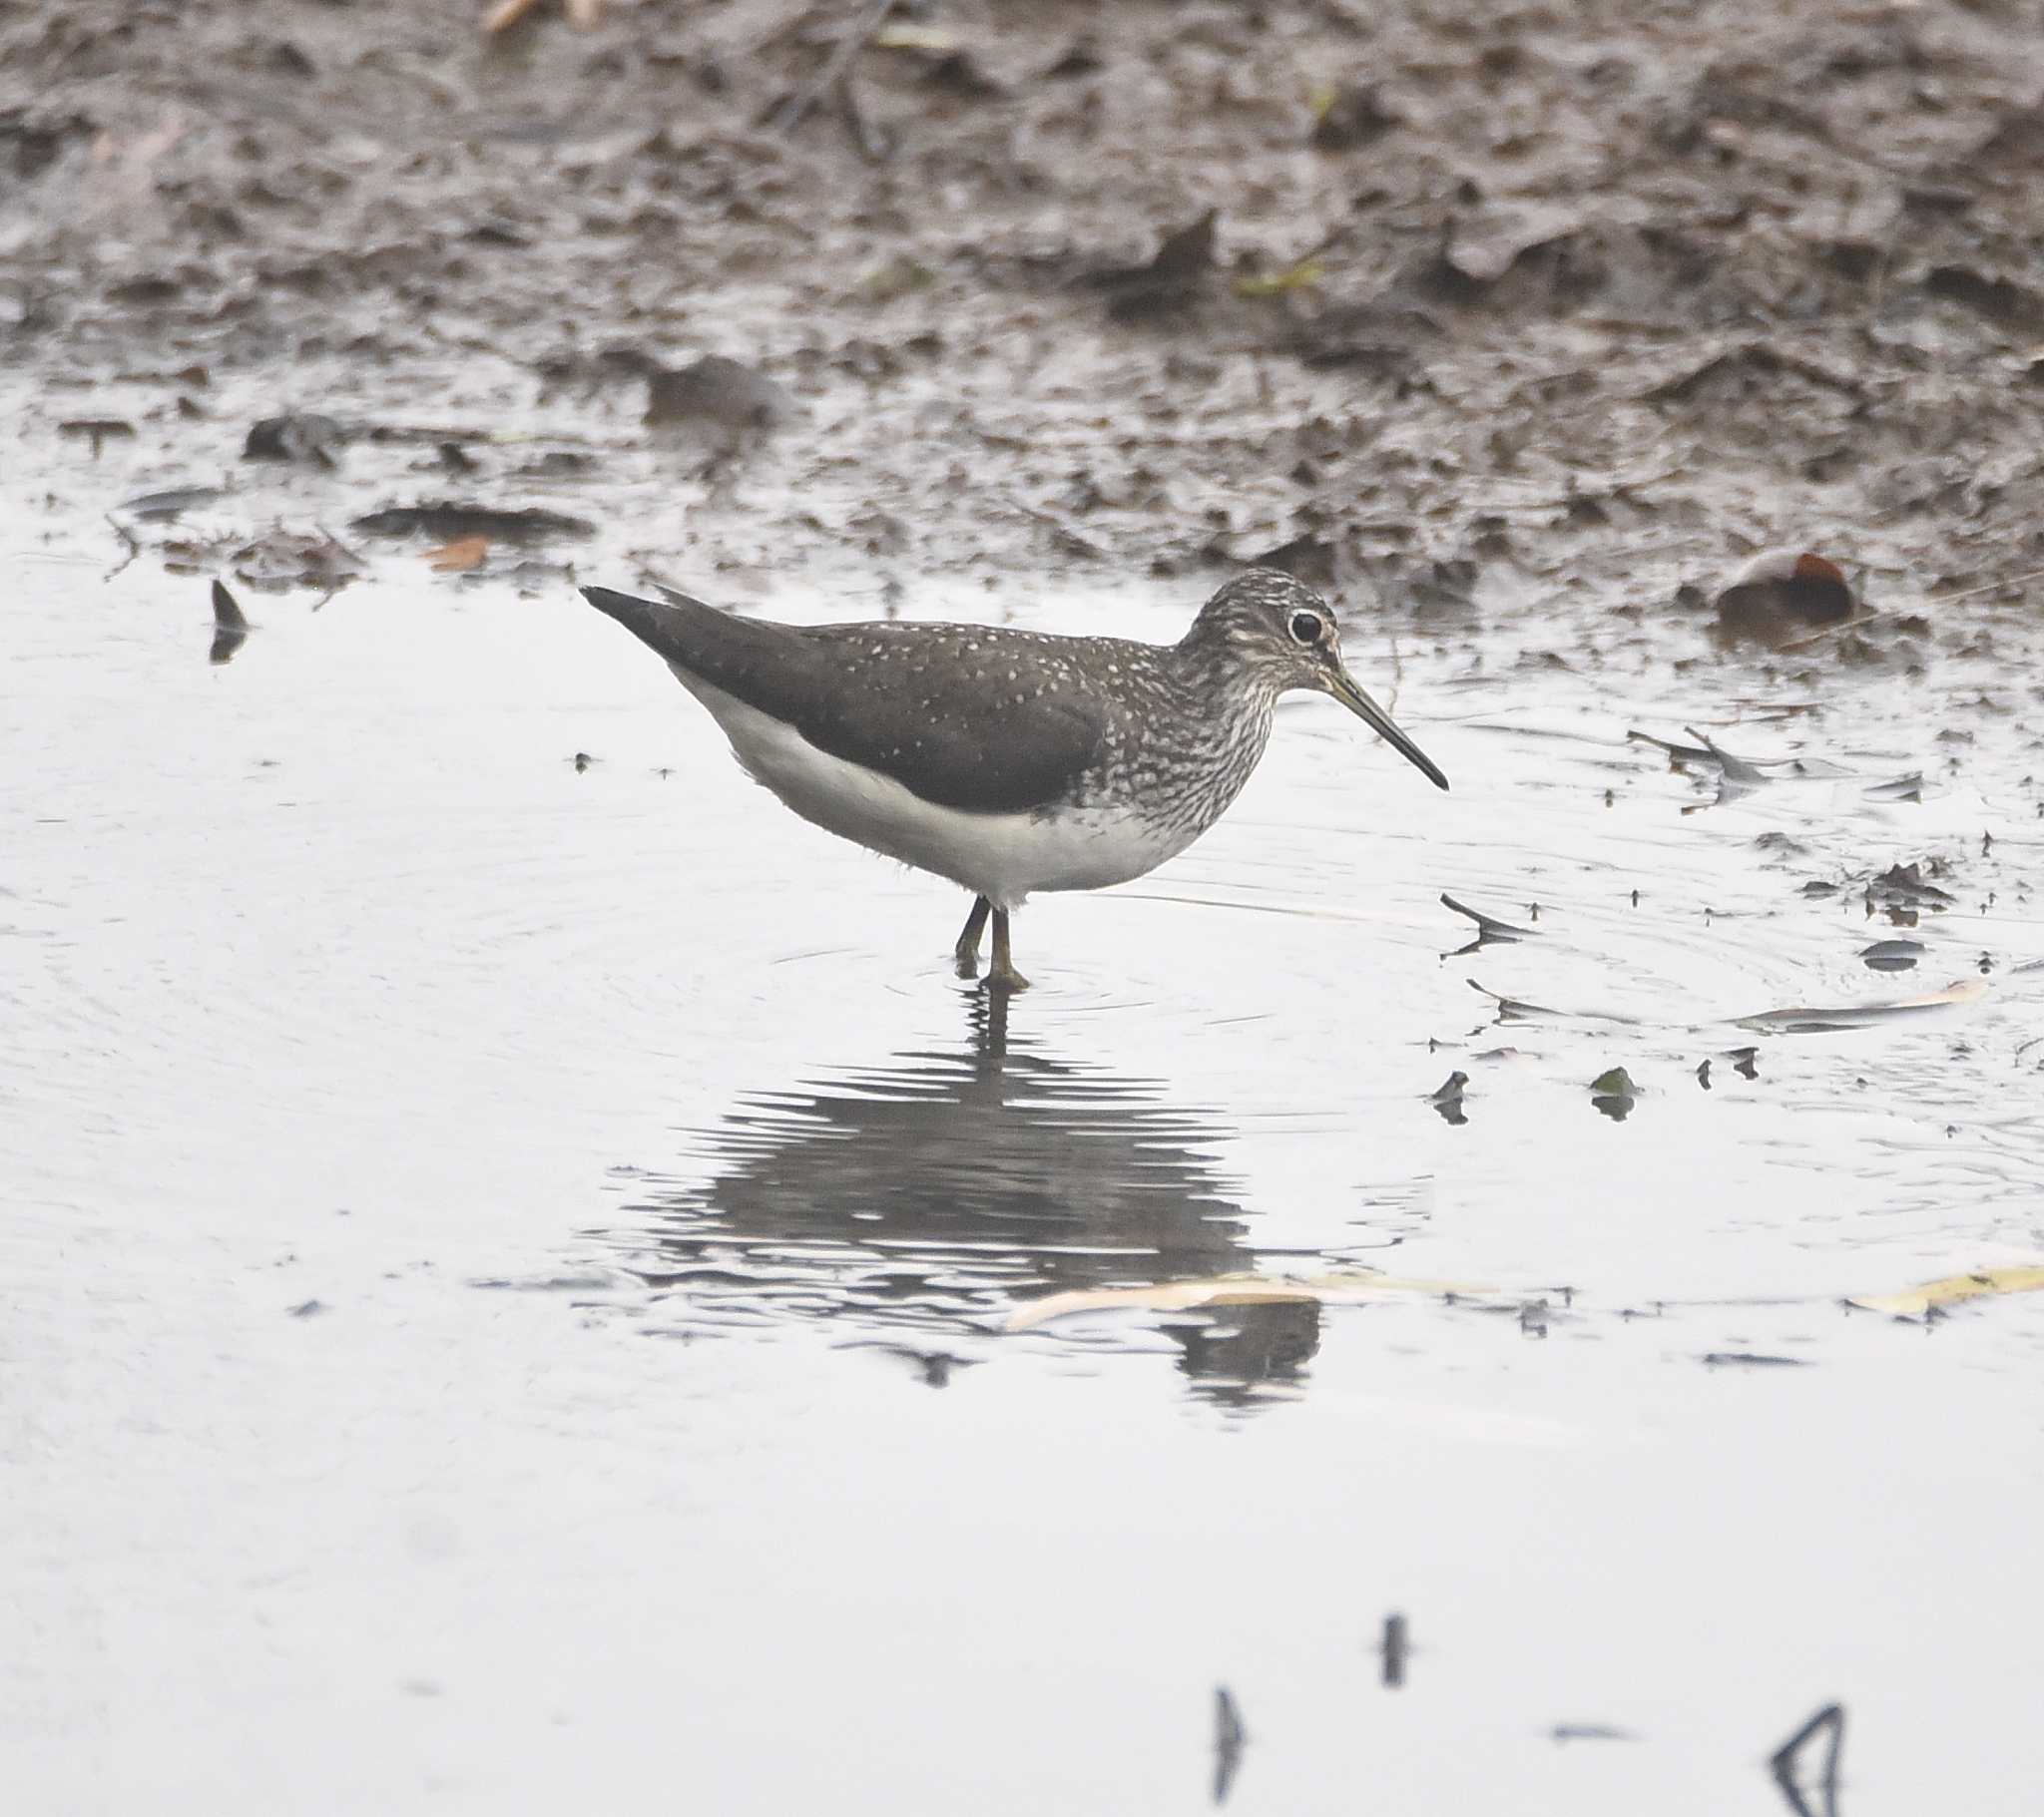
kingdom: Animalia
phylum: Chordata
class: Aves
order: Charadriiformes
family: Scolopacidae
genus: Tringa
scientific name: Tringa ochropus
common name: Green sandpiper
